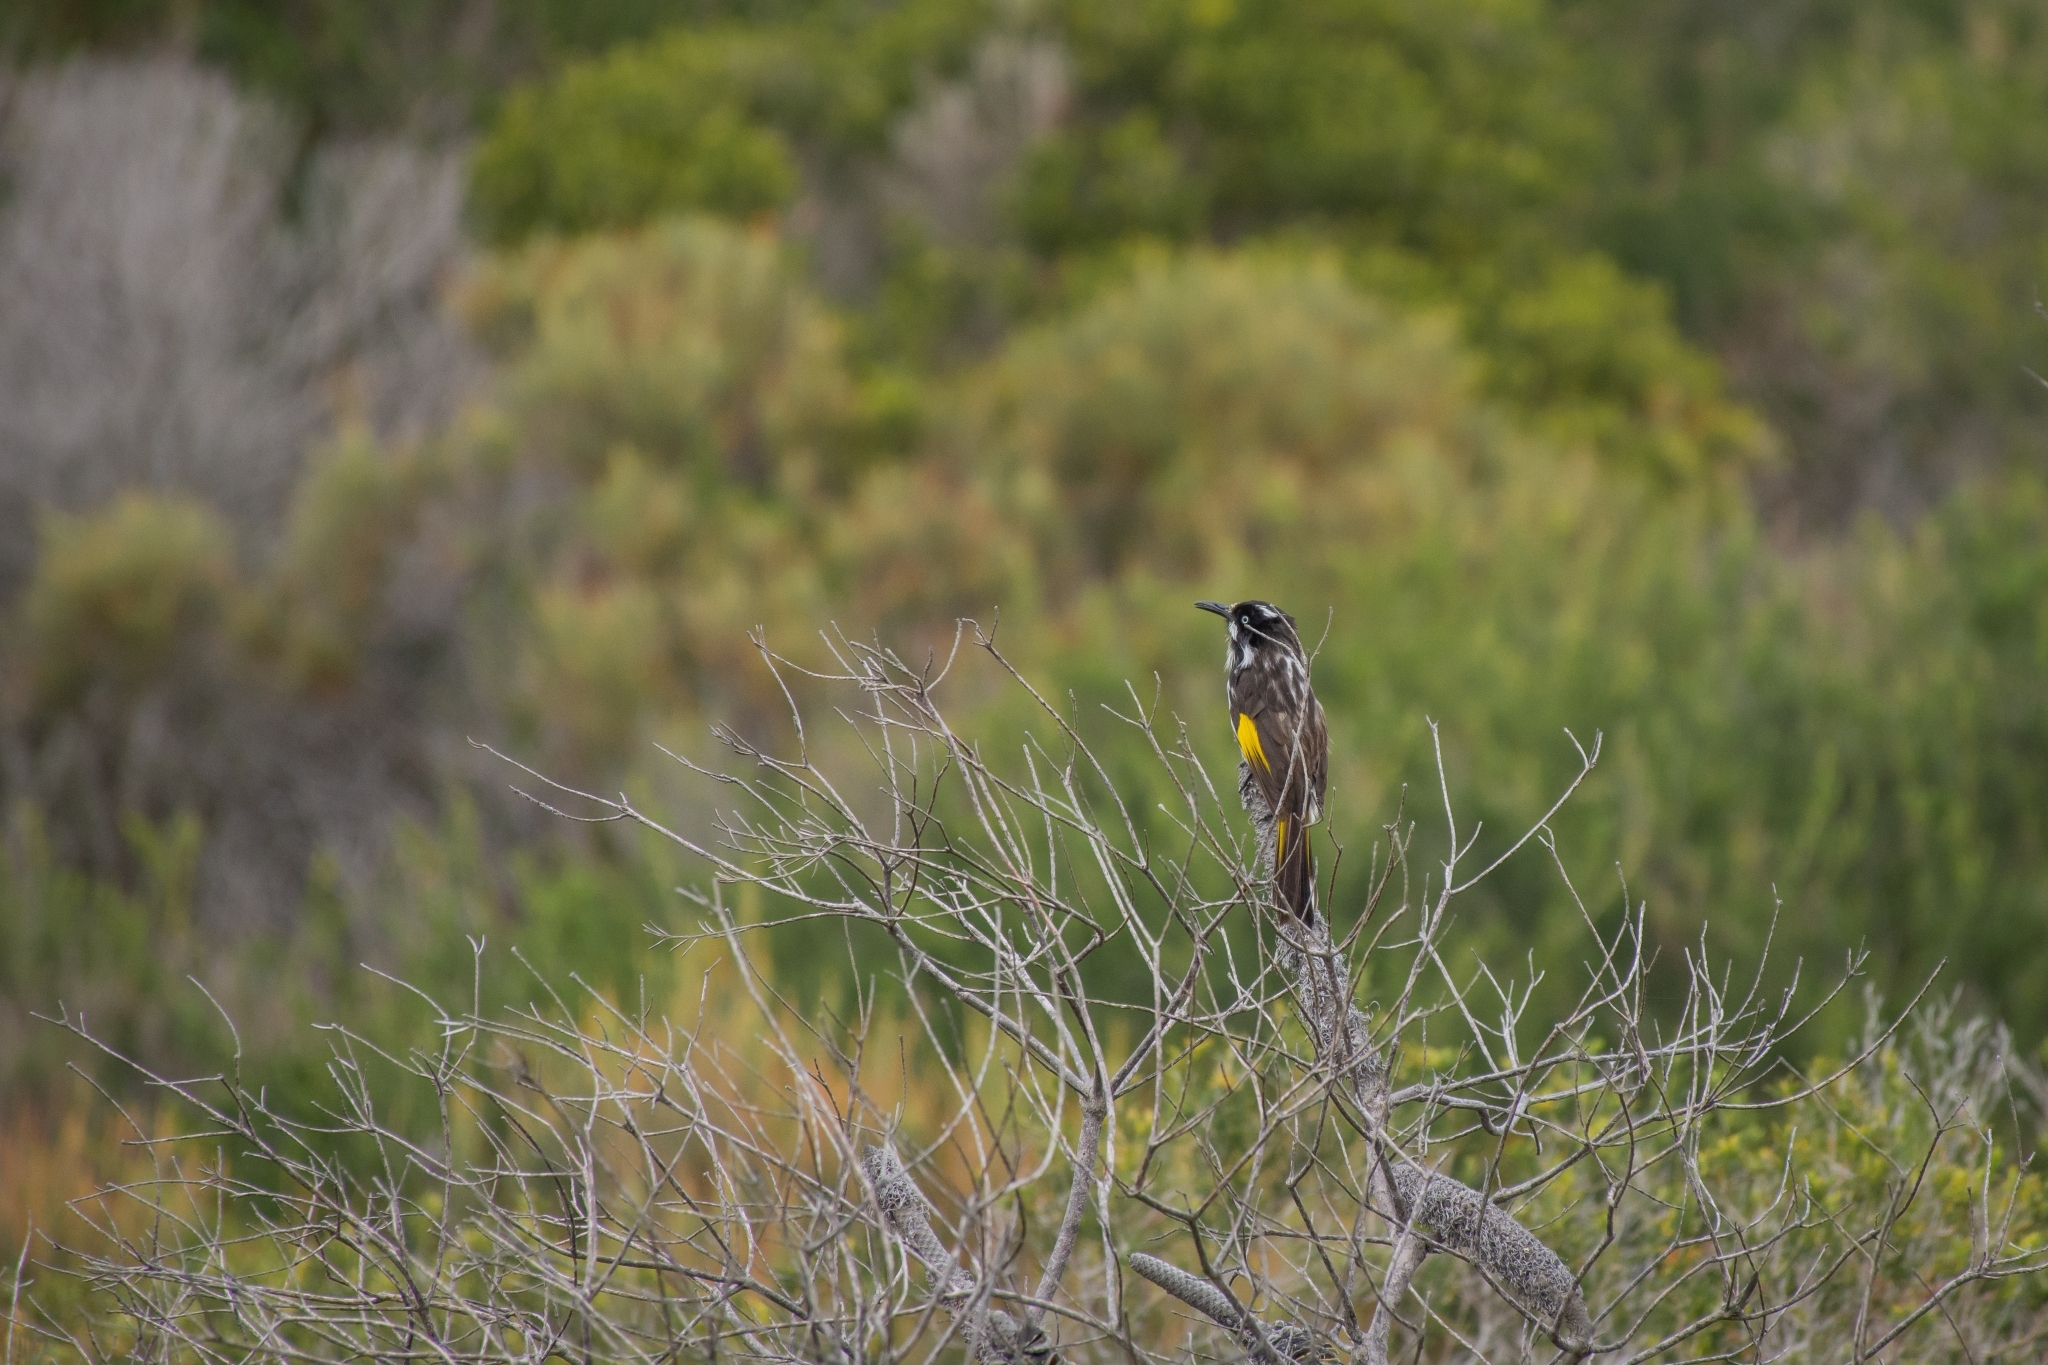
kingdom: Animalia
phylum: Chordata
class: Aves
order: Passeriformes
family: Meliphagidae
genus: Phylidonyris
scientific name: Phylidonyris novaehollandiae
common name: New holland honeyeater
